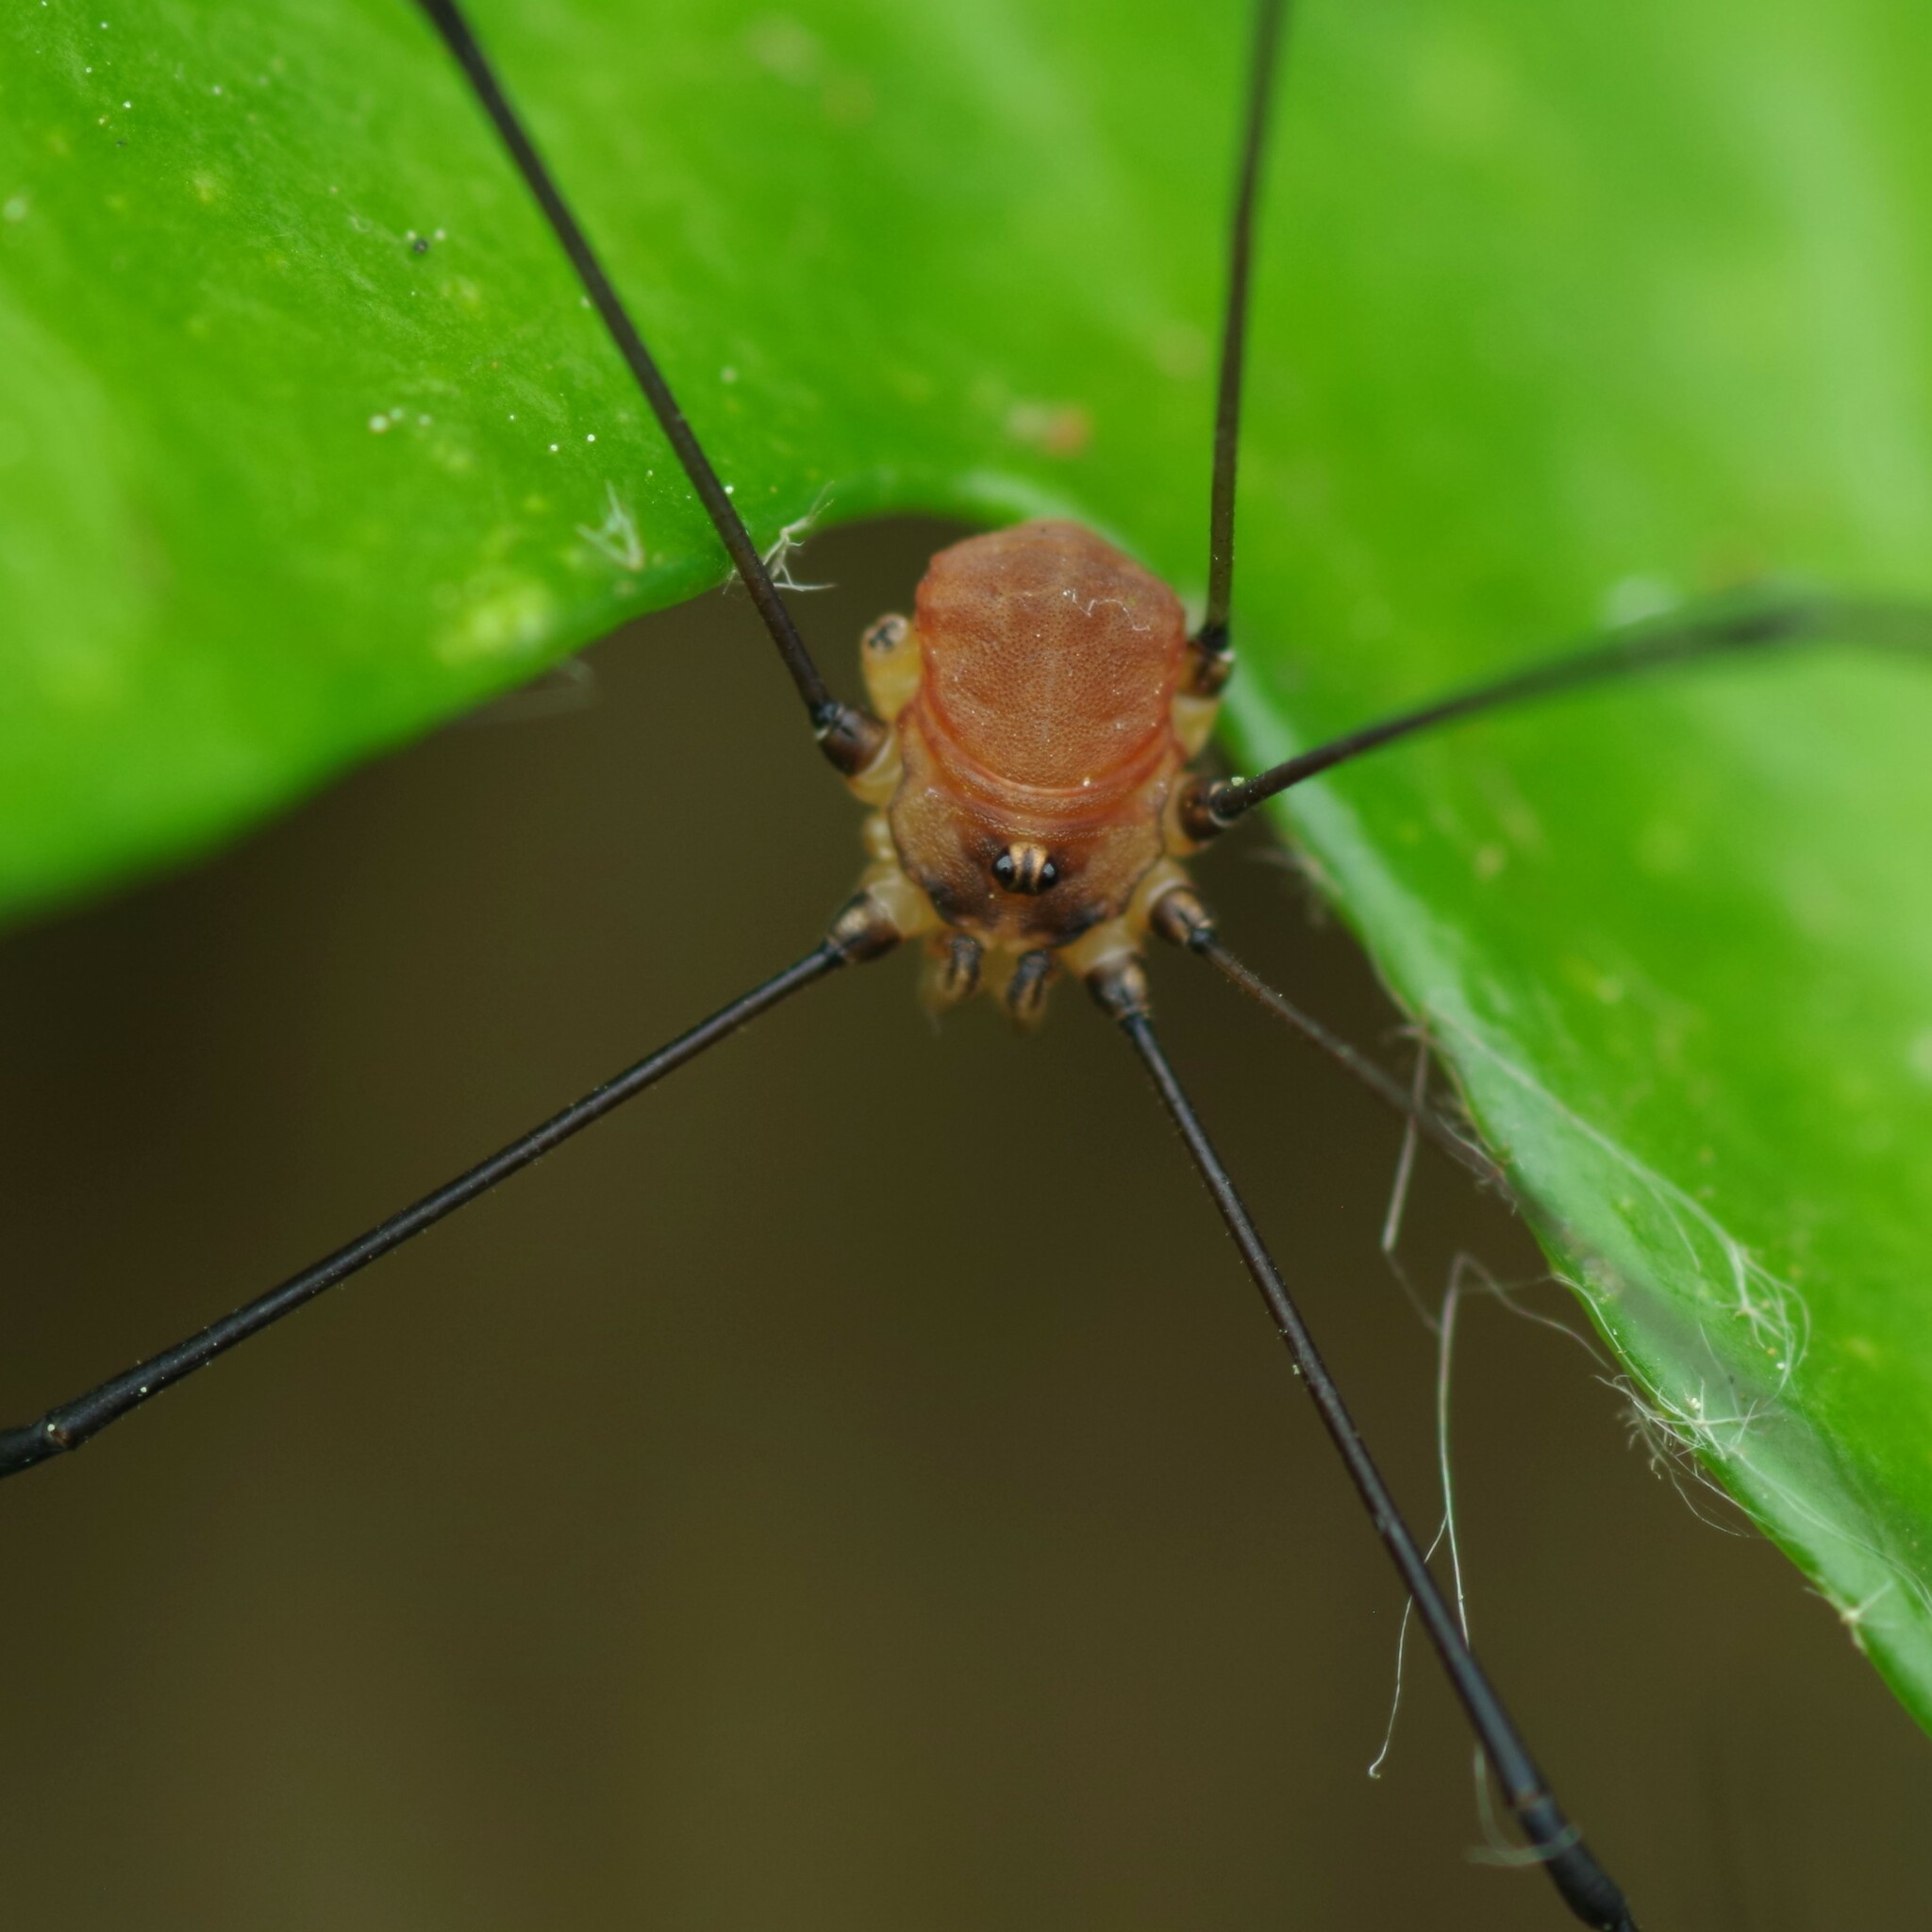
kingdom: Animalia
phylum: Arthropoda
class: Arachnida
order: Opiliones
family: Sclerosomatidae
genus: Leiobunum
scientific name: Leiobunum blackwalli
